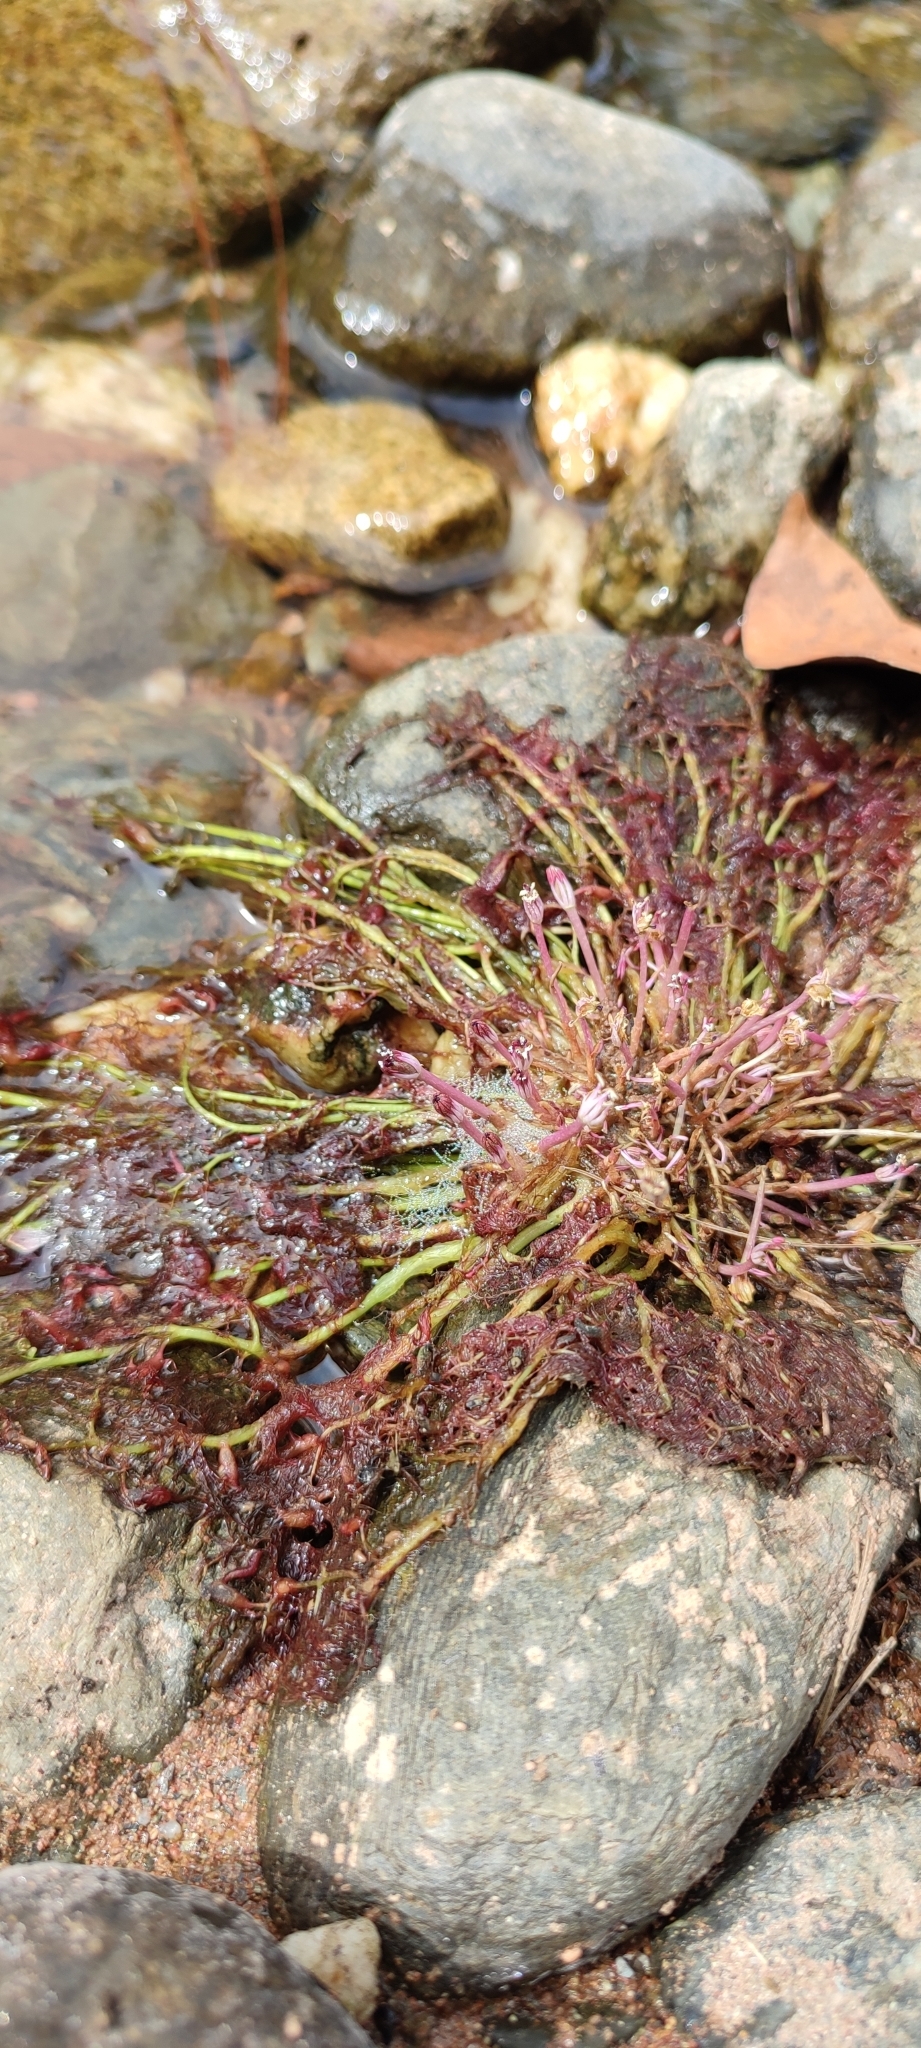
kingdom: Plantae
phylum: Tracheophyta
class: Magnoliopsida
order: Malpighiales
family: Podostemaceae
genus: Marathrum
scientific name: Marathrum foeniculaceum
